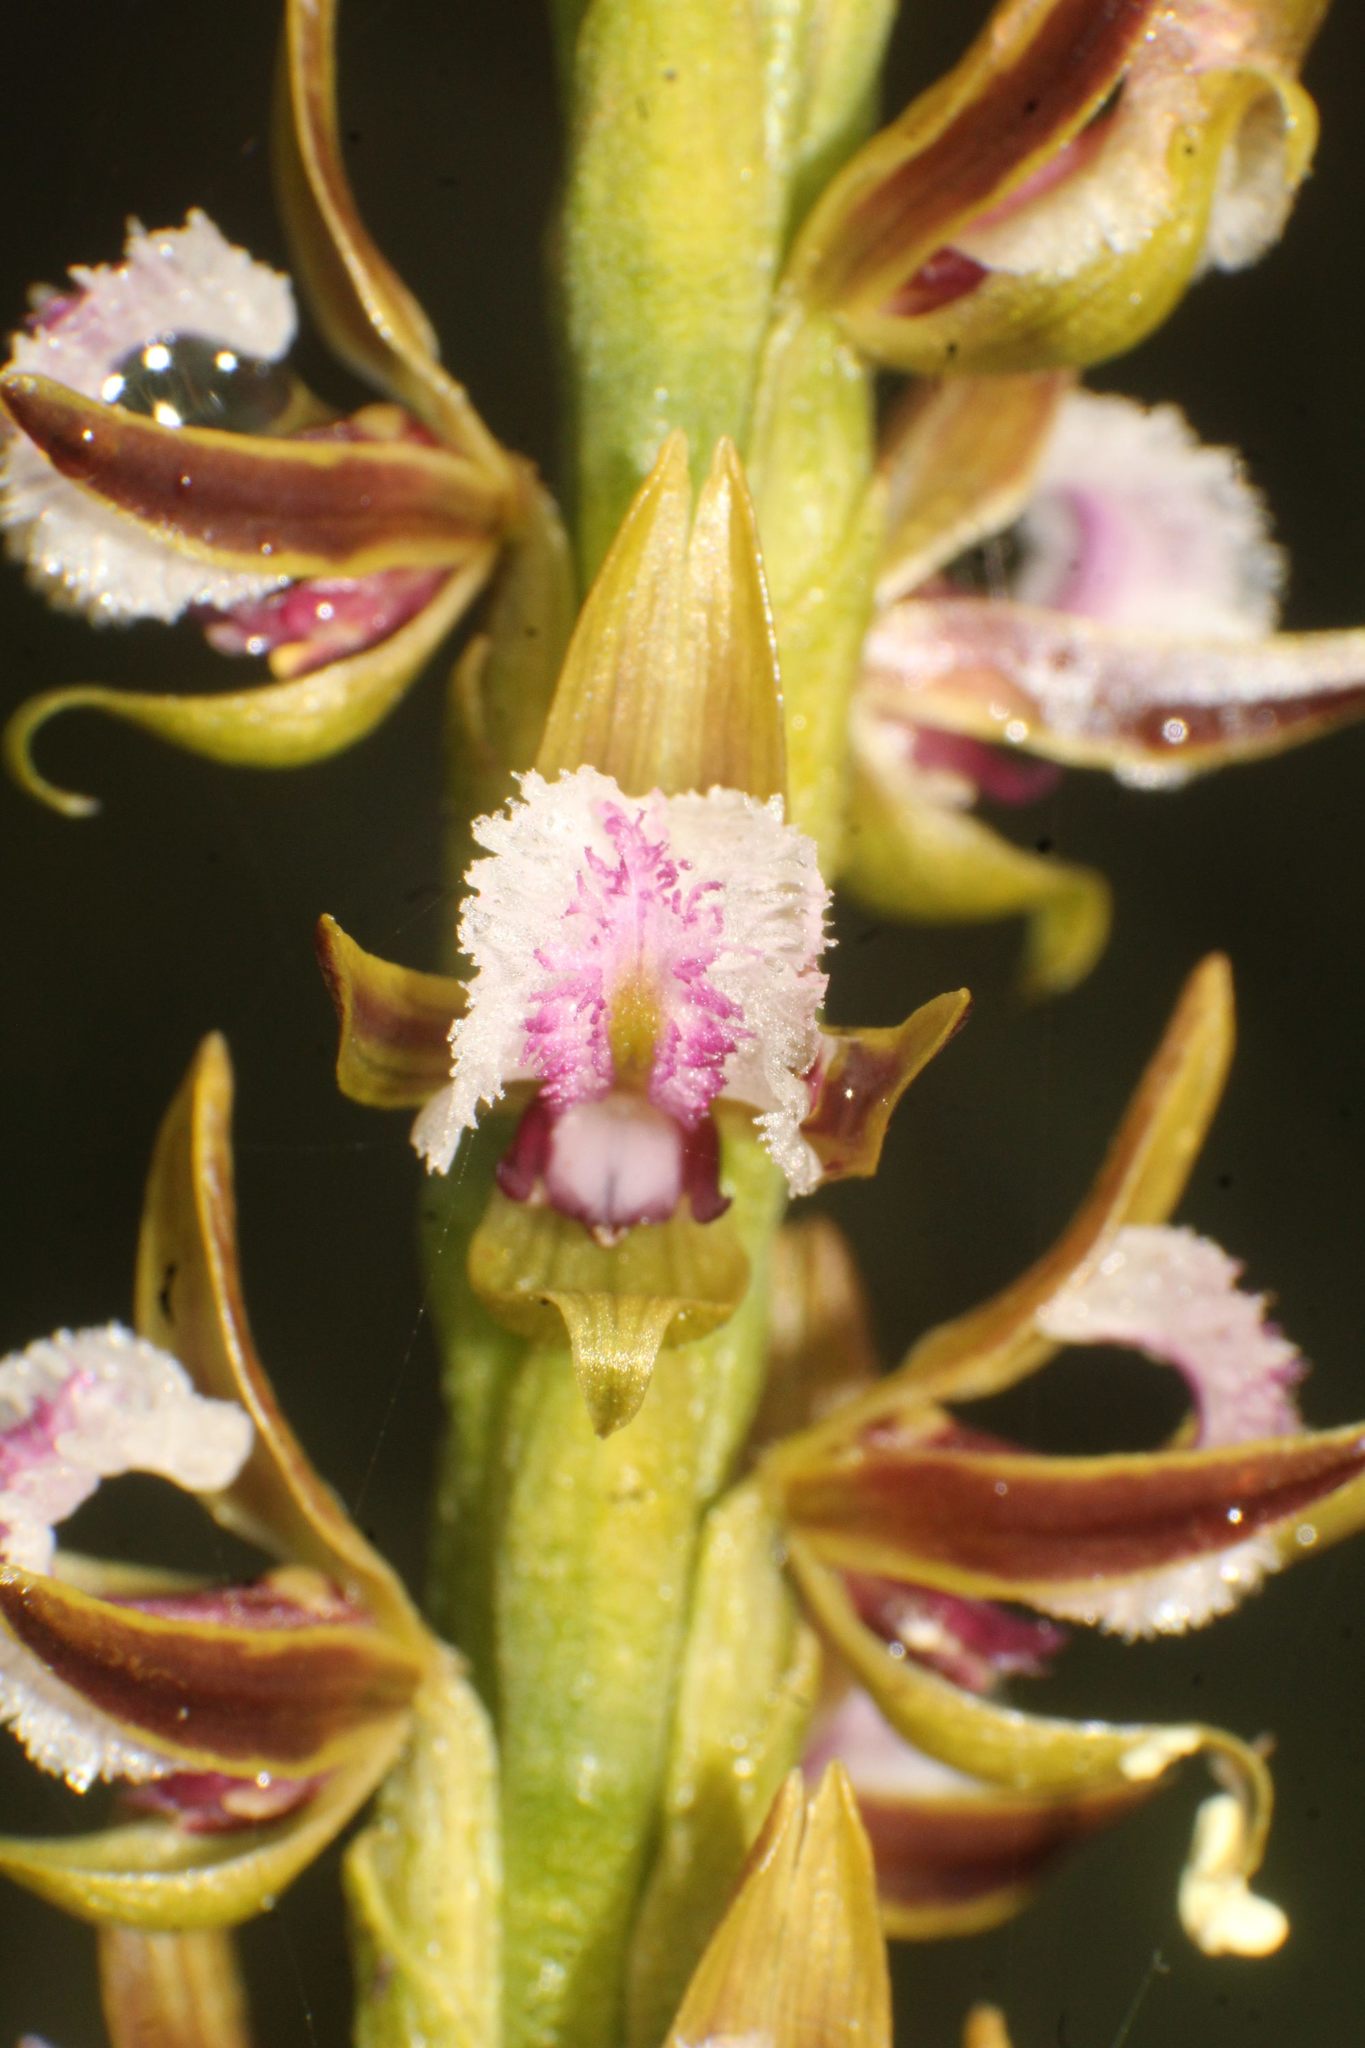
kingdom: Plantae
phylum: Tracheophyta
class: Liliopsida
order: Asparagales
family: Orchidaceae
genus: Prasophyllum
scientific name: Prasophyllum fimbria
